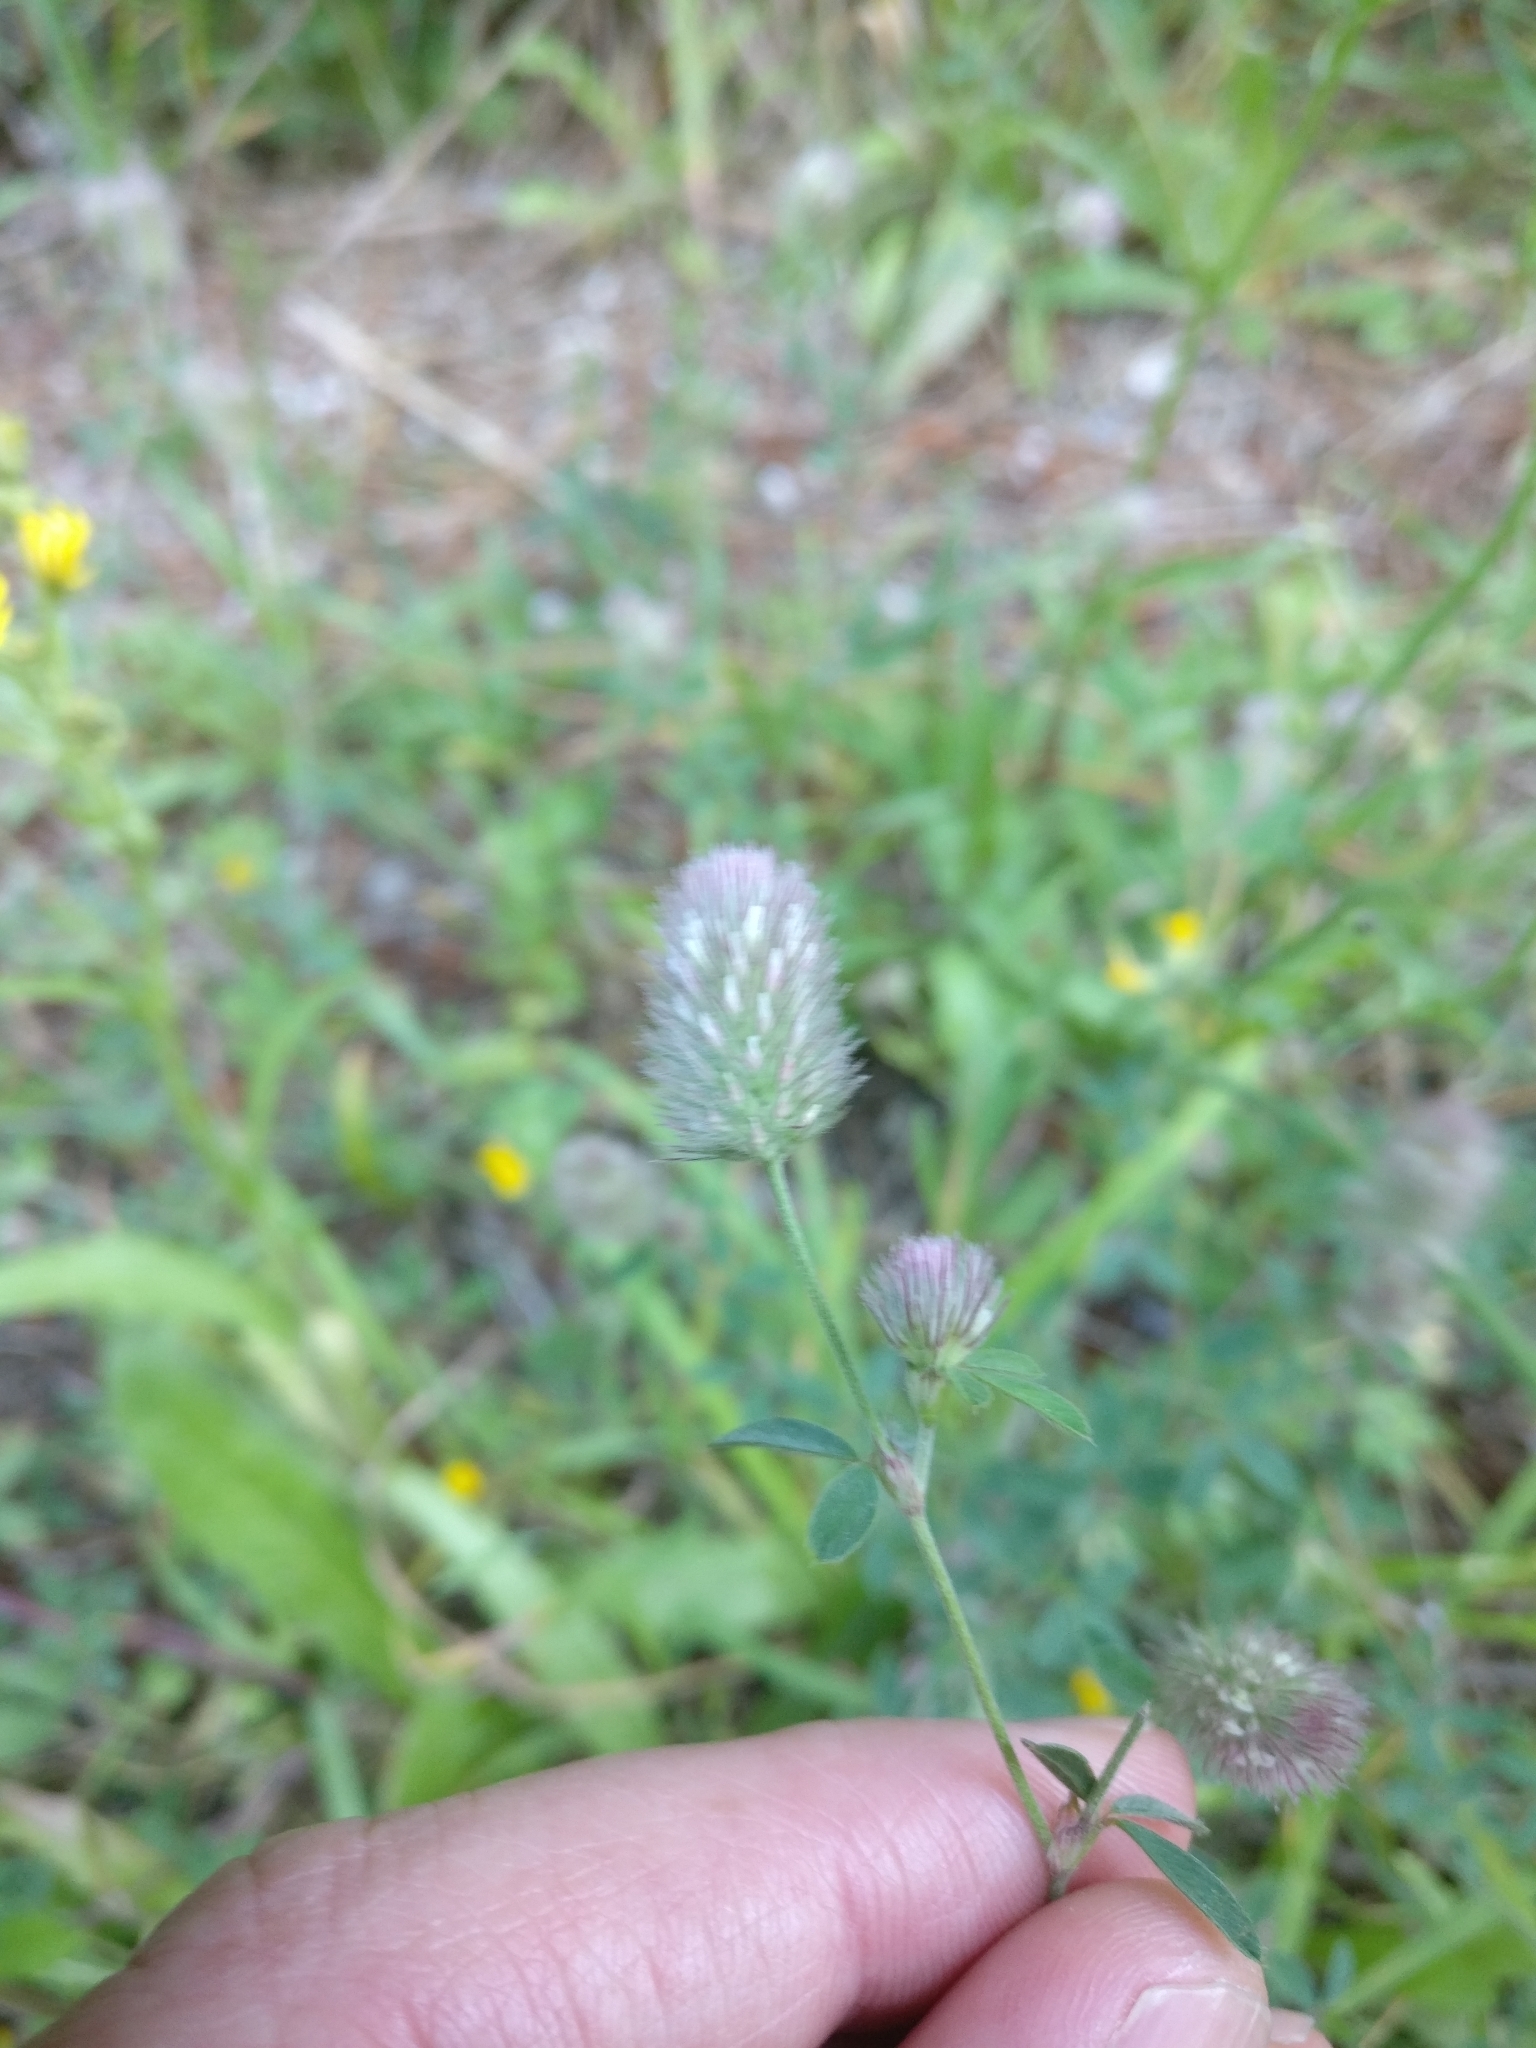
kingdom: Plantae
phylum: Tracheophyta
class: Magnoliopsida
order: Fabales
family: Fabaceae
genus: Trifolium
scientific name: Trifolium arvense
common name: Hare's-foot clover
